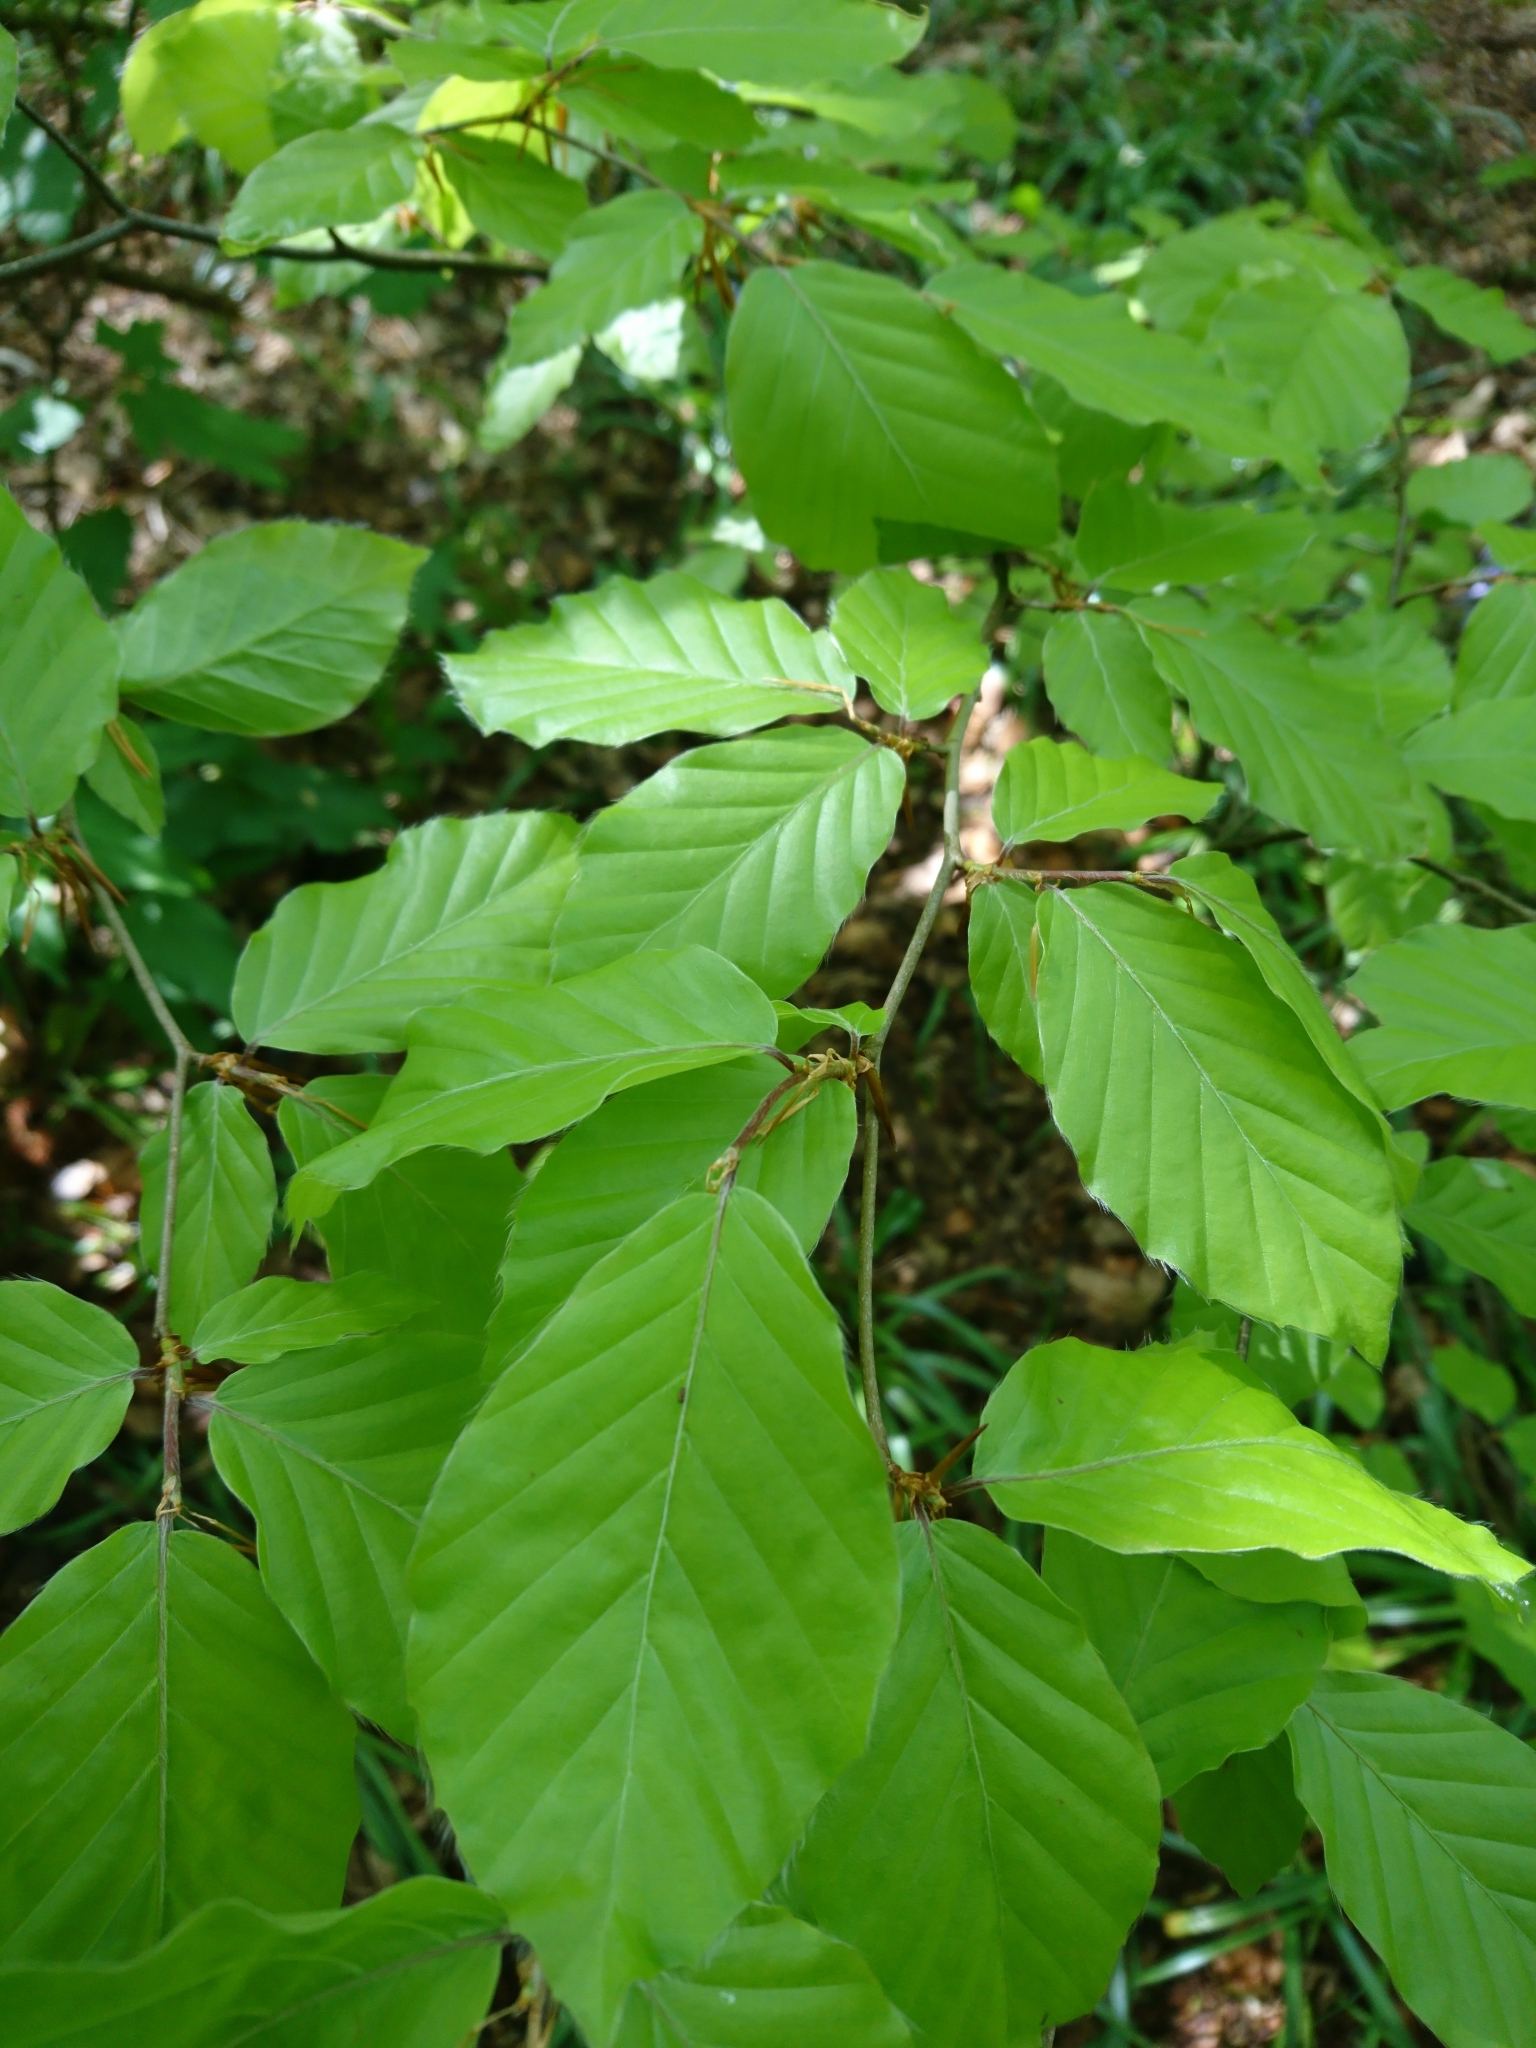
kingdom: Plantae
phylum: Tracheophyta
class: Magnoliopsida
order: Fagales
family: Fagaceae
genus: Fagus
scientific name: Fagus sylvatica
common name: Beech
